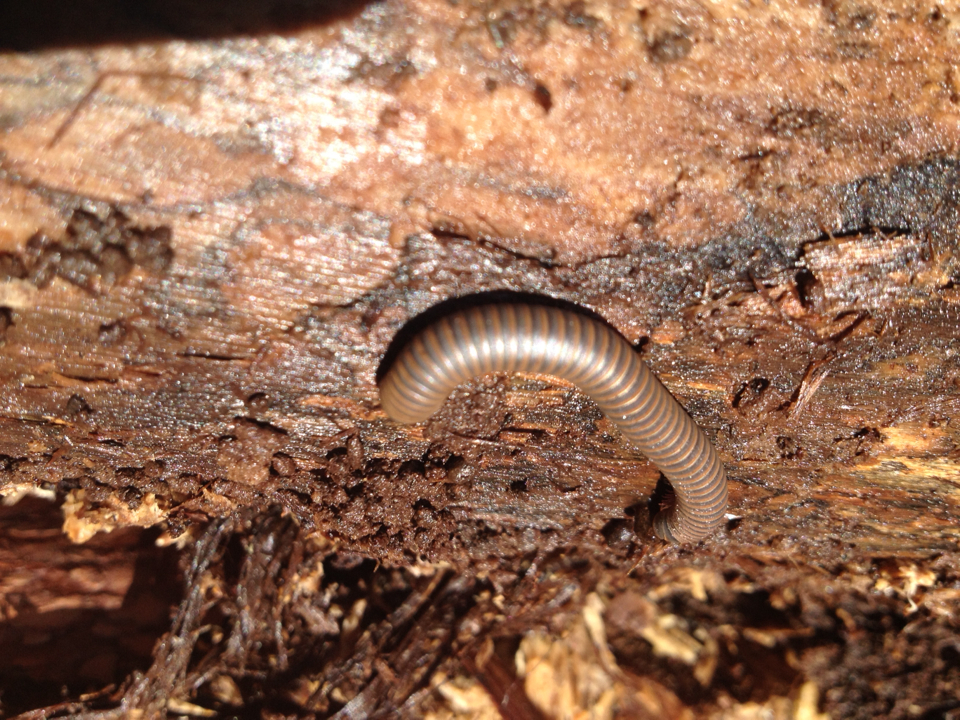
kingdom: Animalia
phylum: Arthropoda
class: Diplopoda
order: Spirobolida
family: Spirobolidae
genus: Narceus
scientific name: Narceus
